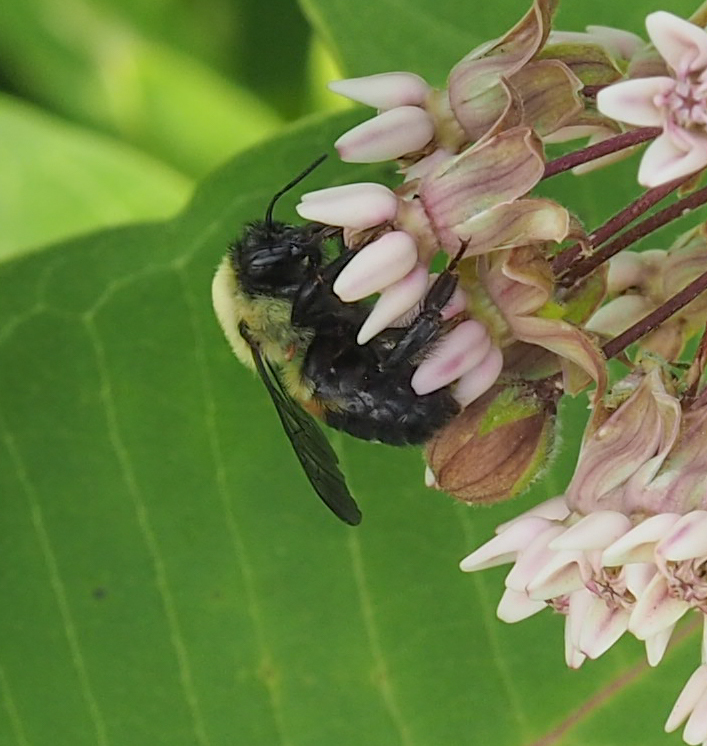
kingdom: Animalia
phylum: Arthropoda
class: Insecta
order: Hymenoptera
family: Apidae
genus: Bombus
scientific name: Bombus griseocollis
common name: Brown-belted bumble bee
